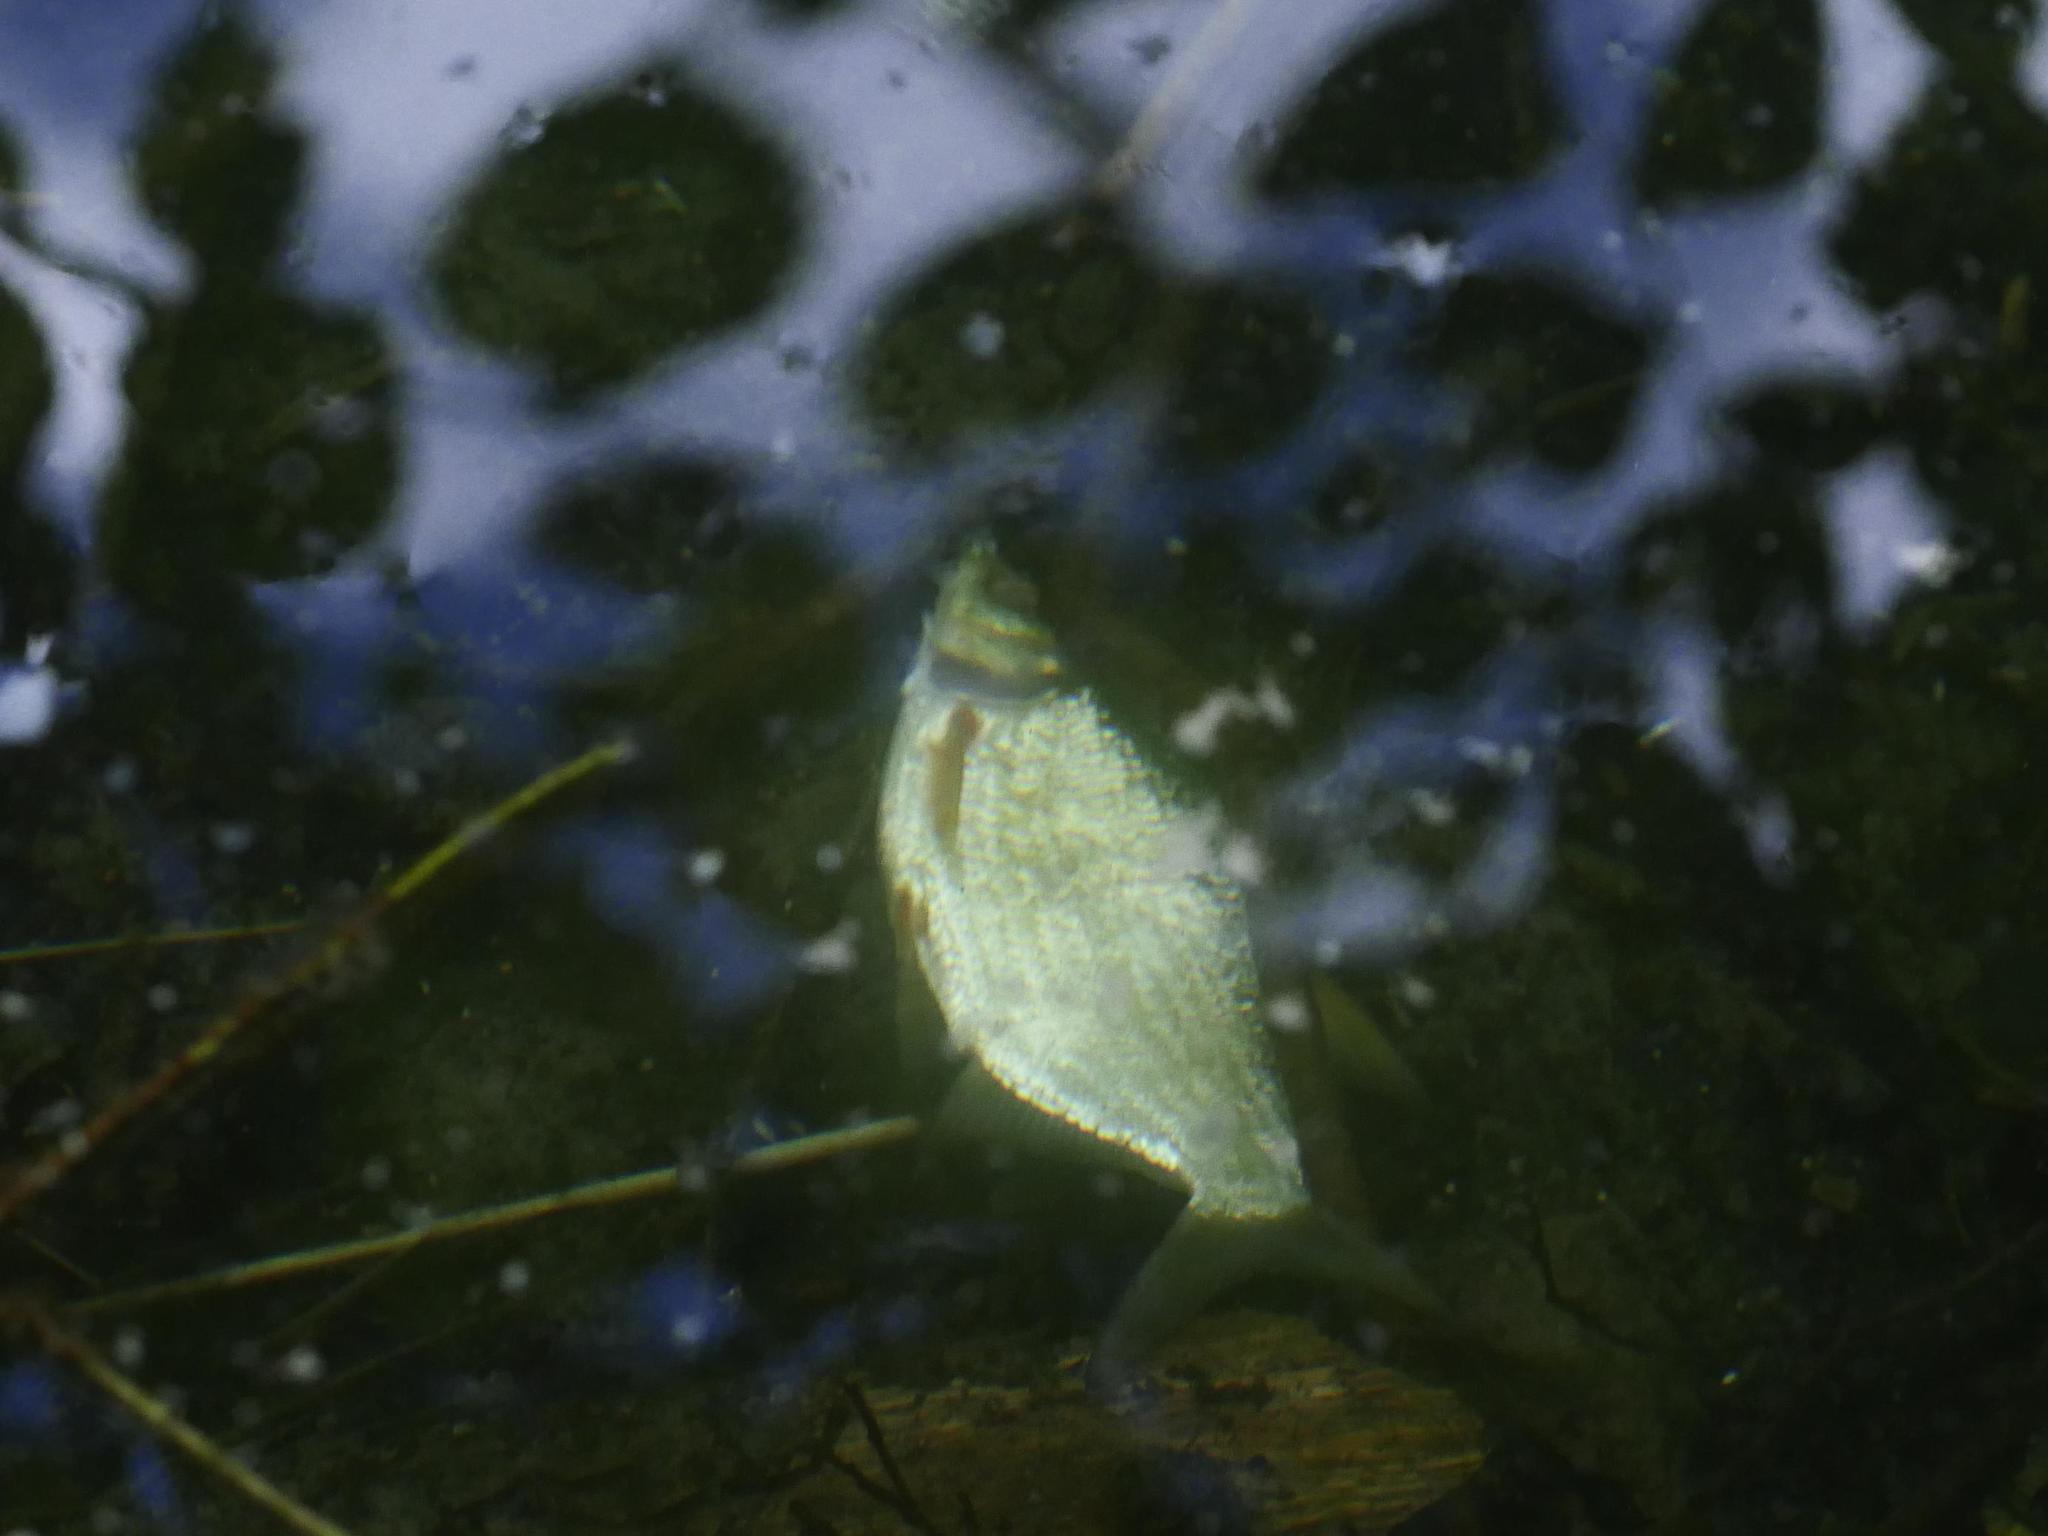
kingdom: Animalia
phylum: Chordata
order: Cypriniformes
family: Cyprinidae
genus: Abramis
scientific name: Abramis brama
